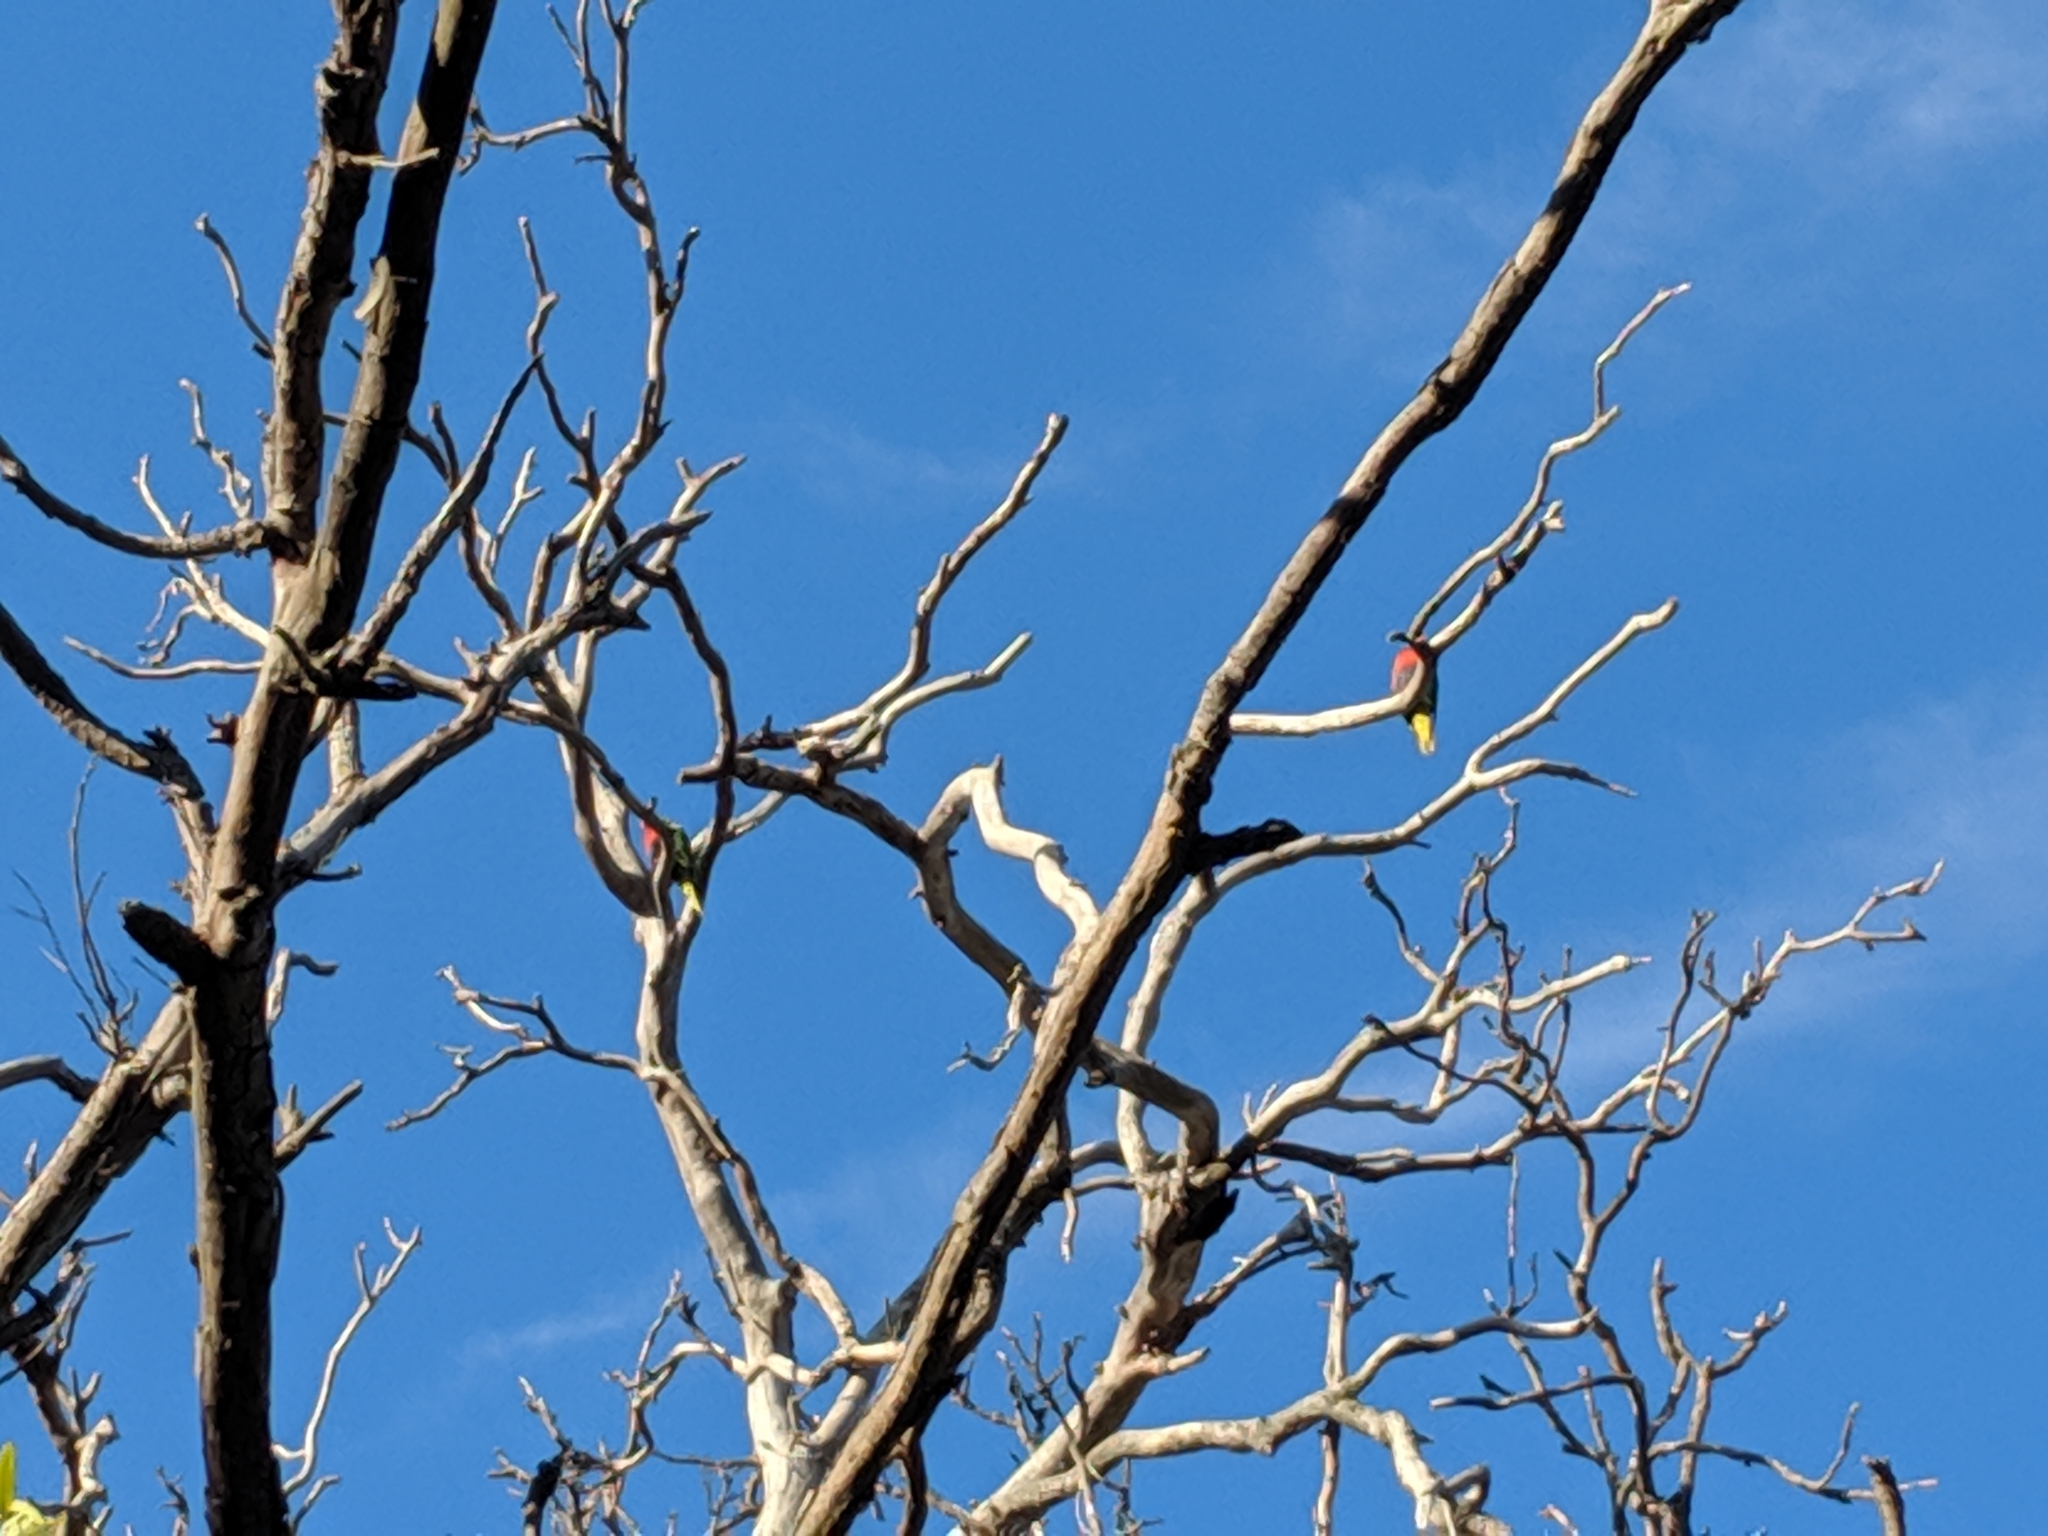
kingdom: Animalia
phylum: Chordata
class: Aves
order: Psittaciformes
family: Psittacidae
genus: Trichoglossus
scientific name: Trichoglossus haematodus
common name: Coconut lorikeet
